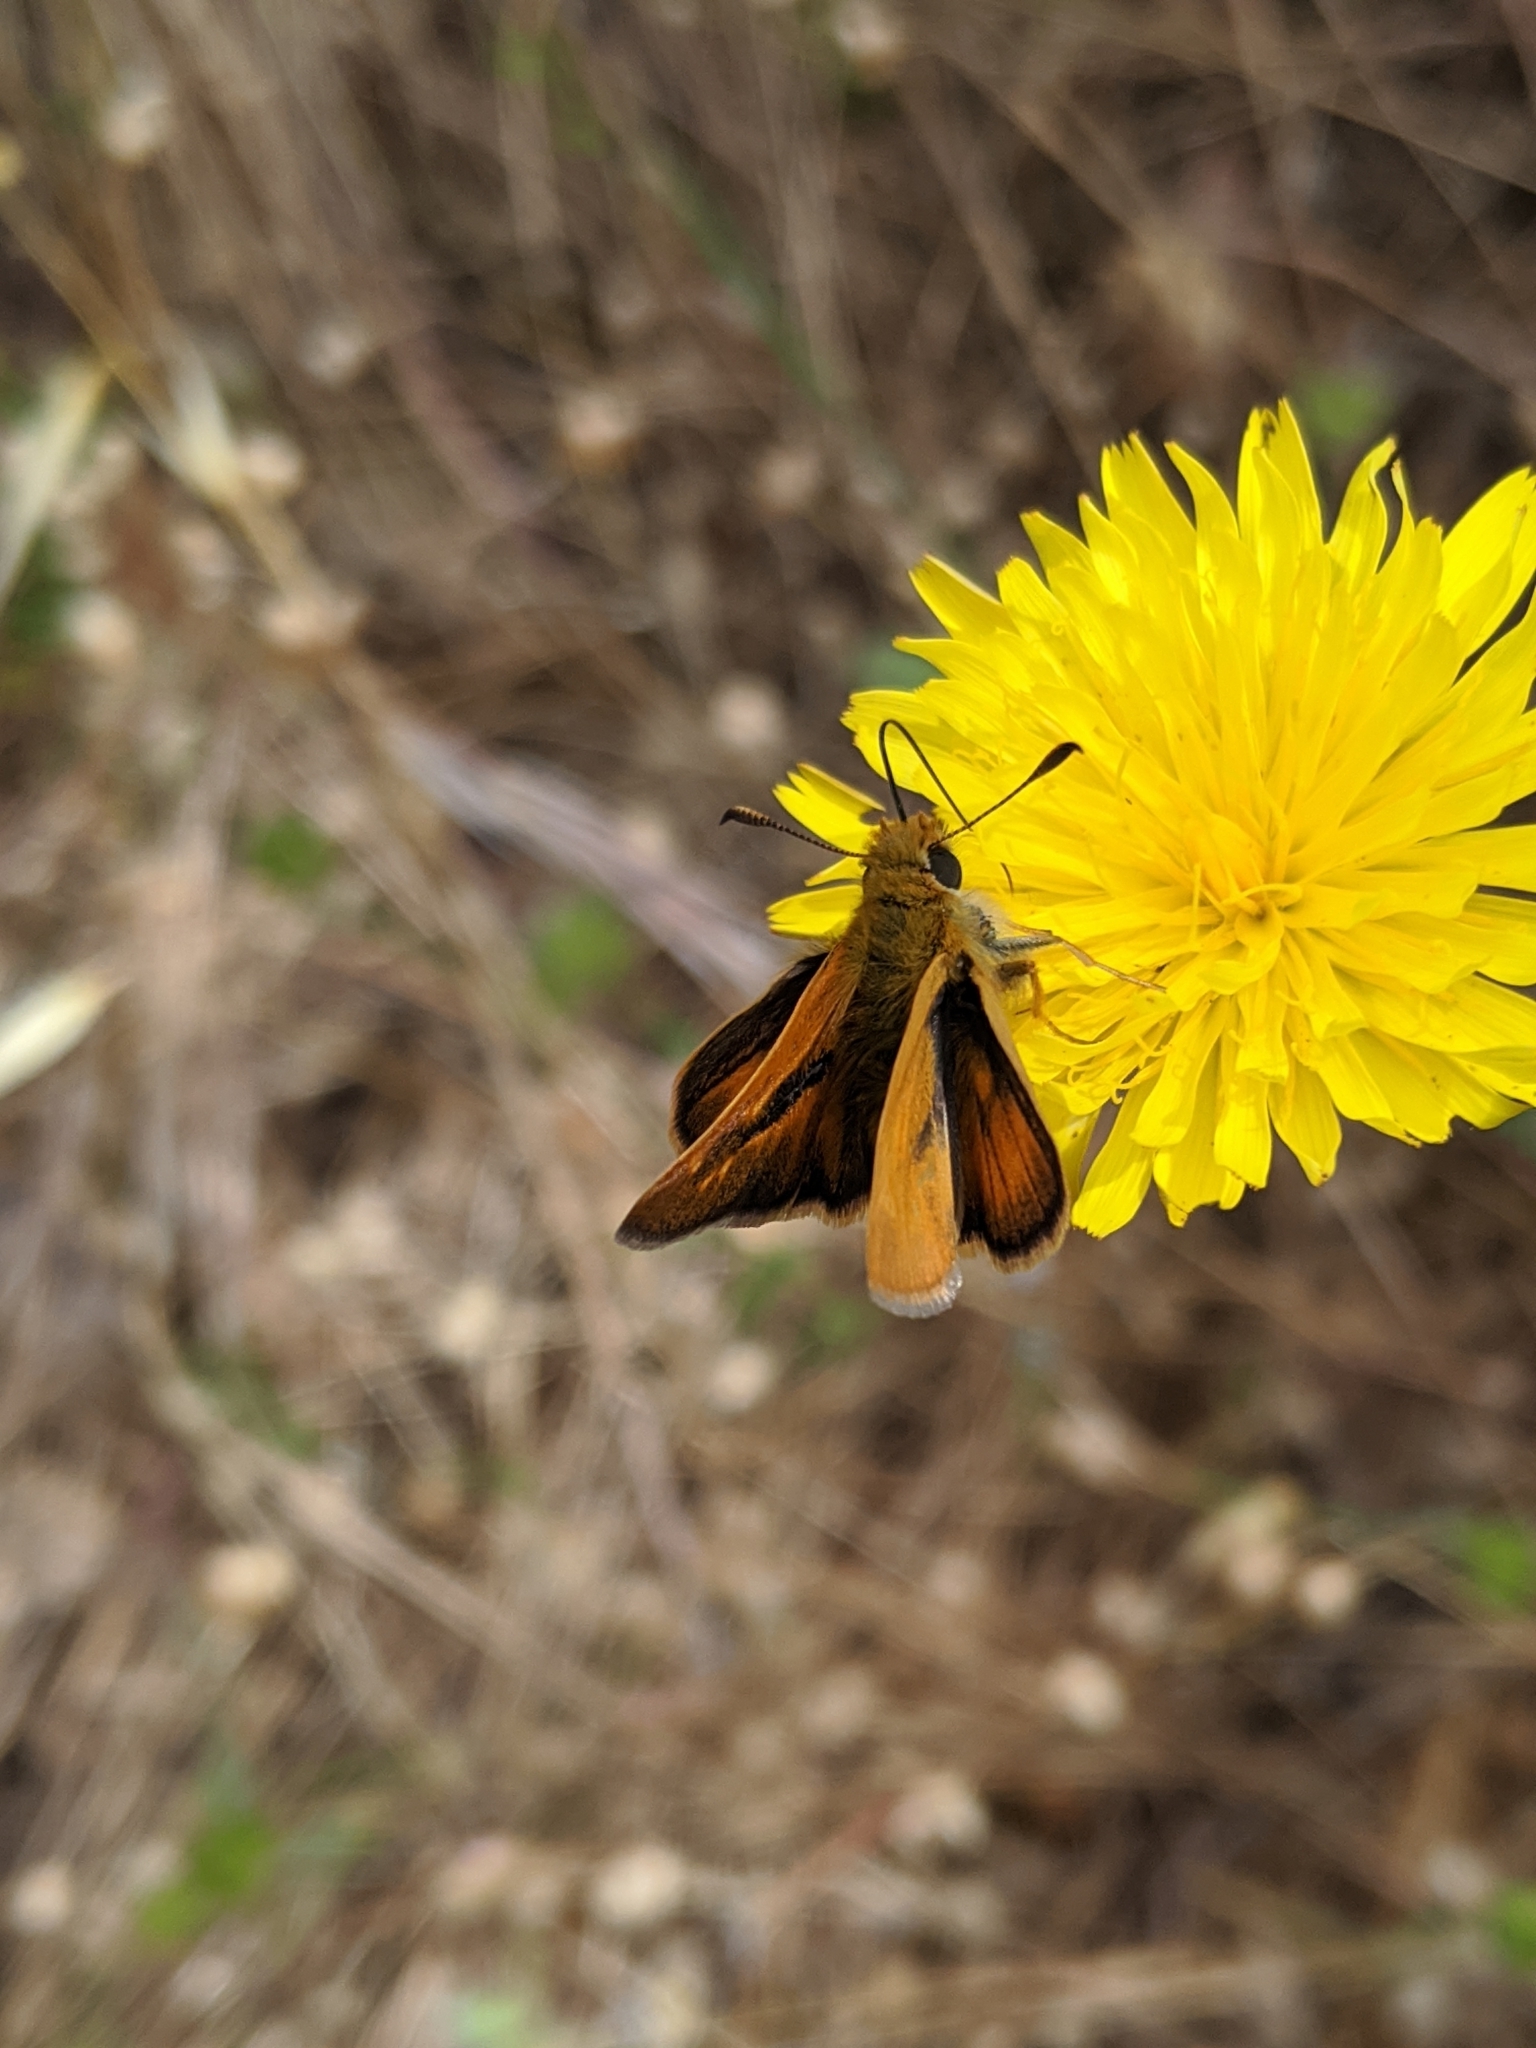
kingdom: Animalia
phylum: Arthropoda
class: Insecta
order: Lepidoptera
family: Hesperiidae
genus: Ochlodes
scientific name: Ochlodes agricola
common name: Rural skipper
